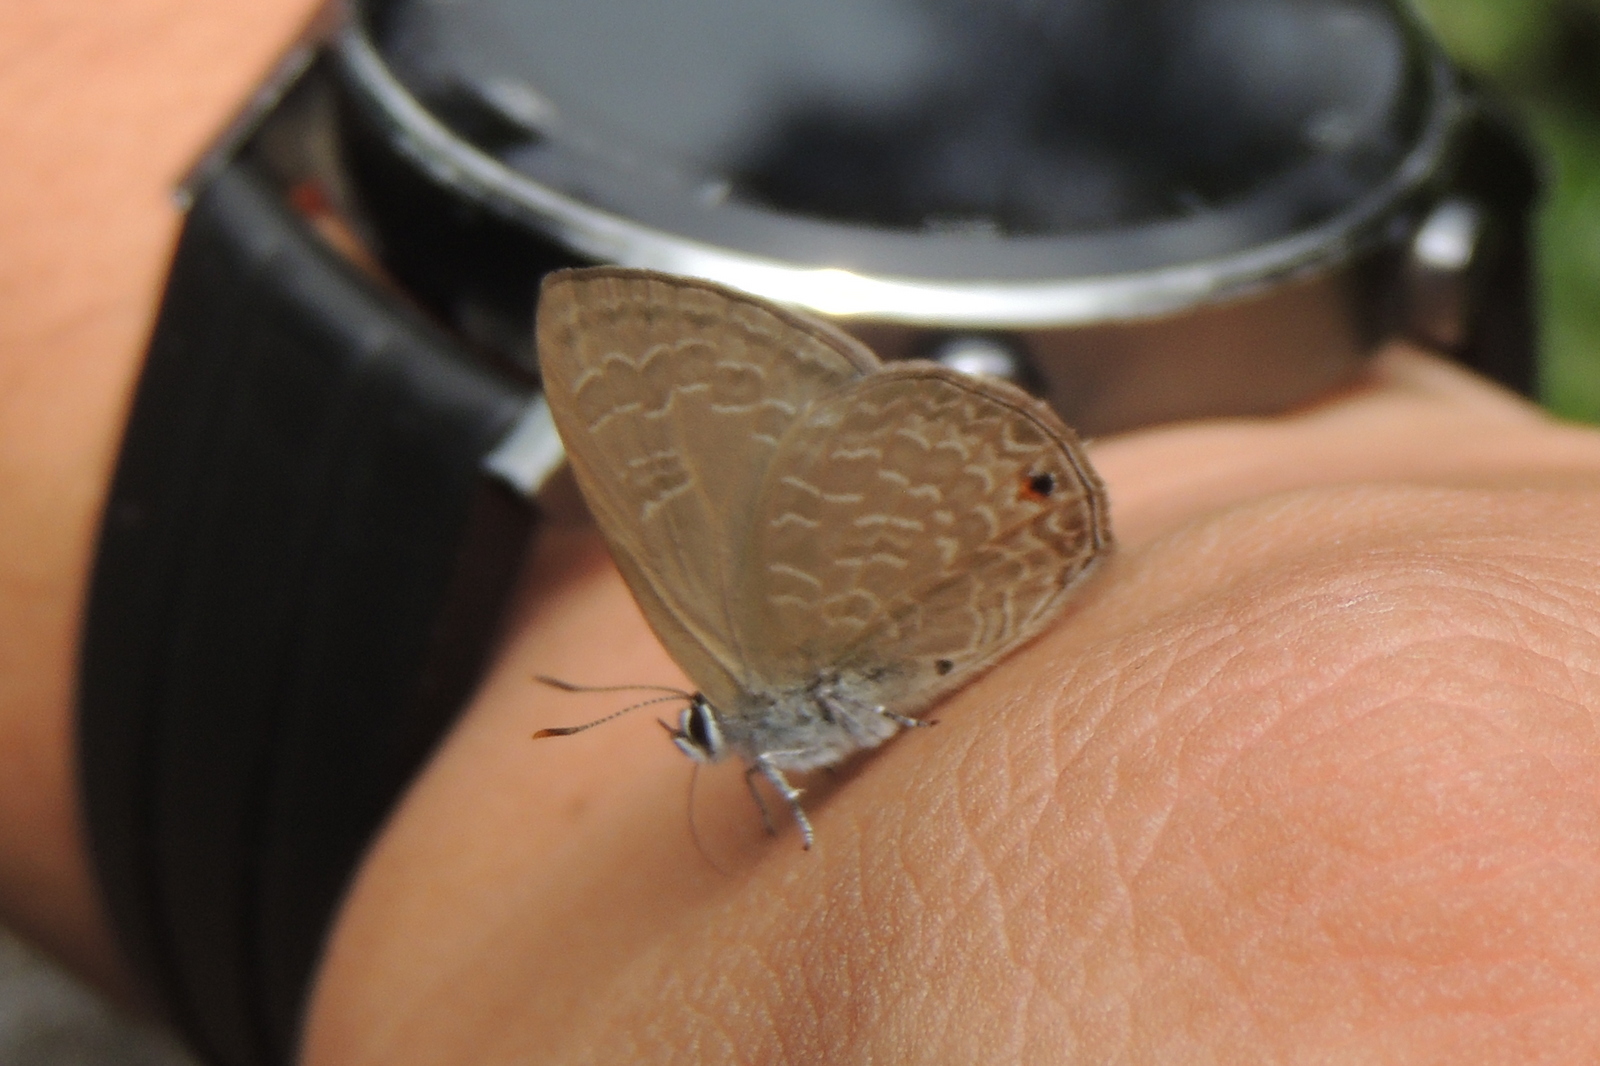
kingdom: Animalia
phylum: Arthropoda
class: Insecta
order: Lepidoptera
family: Lycaenidae
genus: Anthene
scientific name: Anthene emolus
